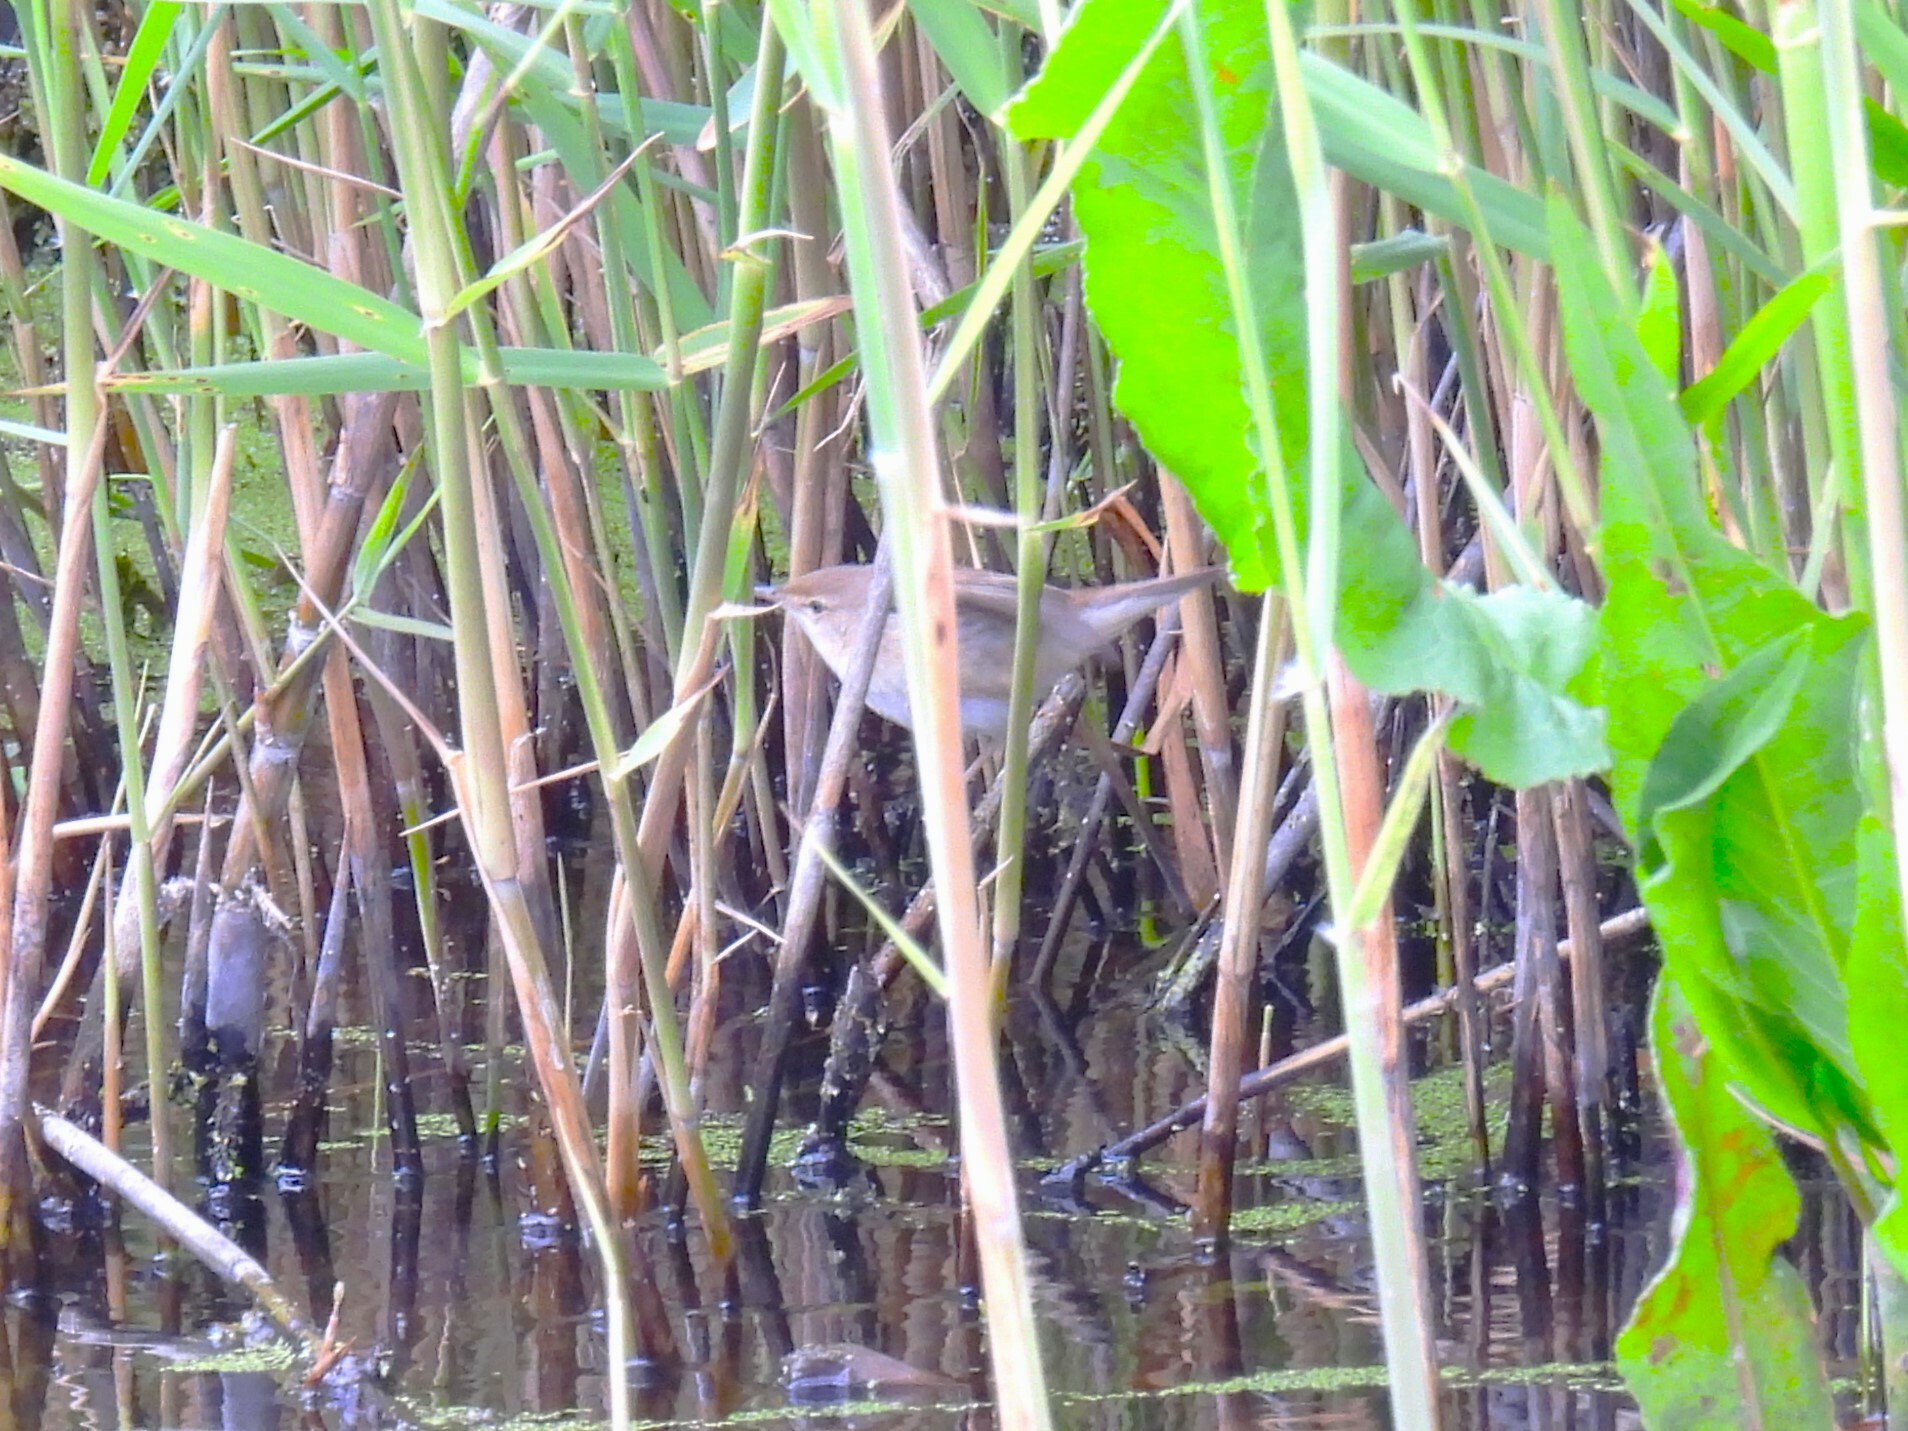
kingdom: Animalia
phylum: Chordata
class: Aves
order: Passeriformes
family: Acrocephalidae
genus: Acrocephalus
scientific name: Acrocephalus scirpaceus
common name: Eurasian reed warbler
